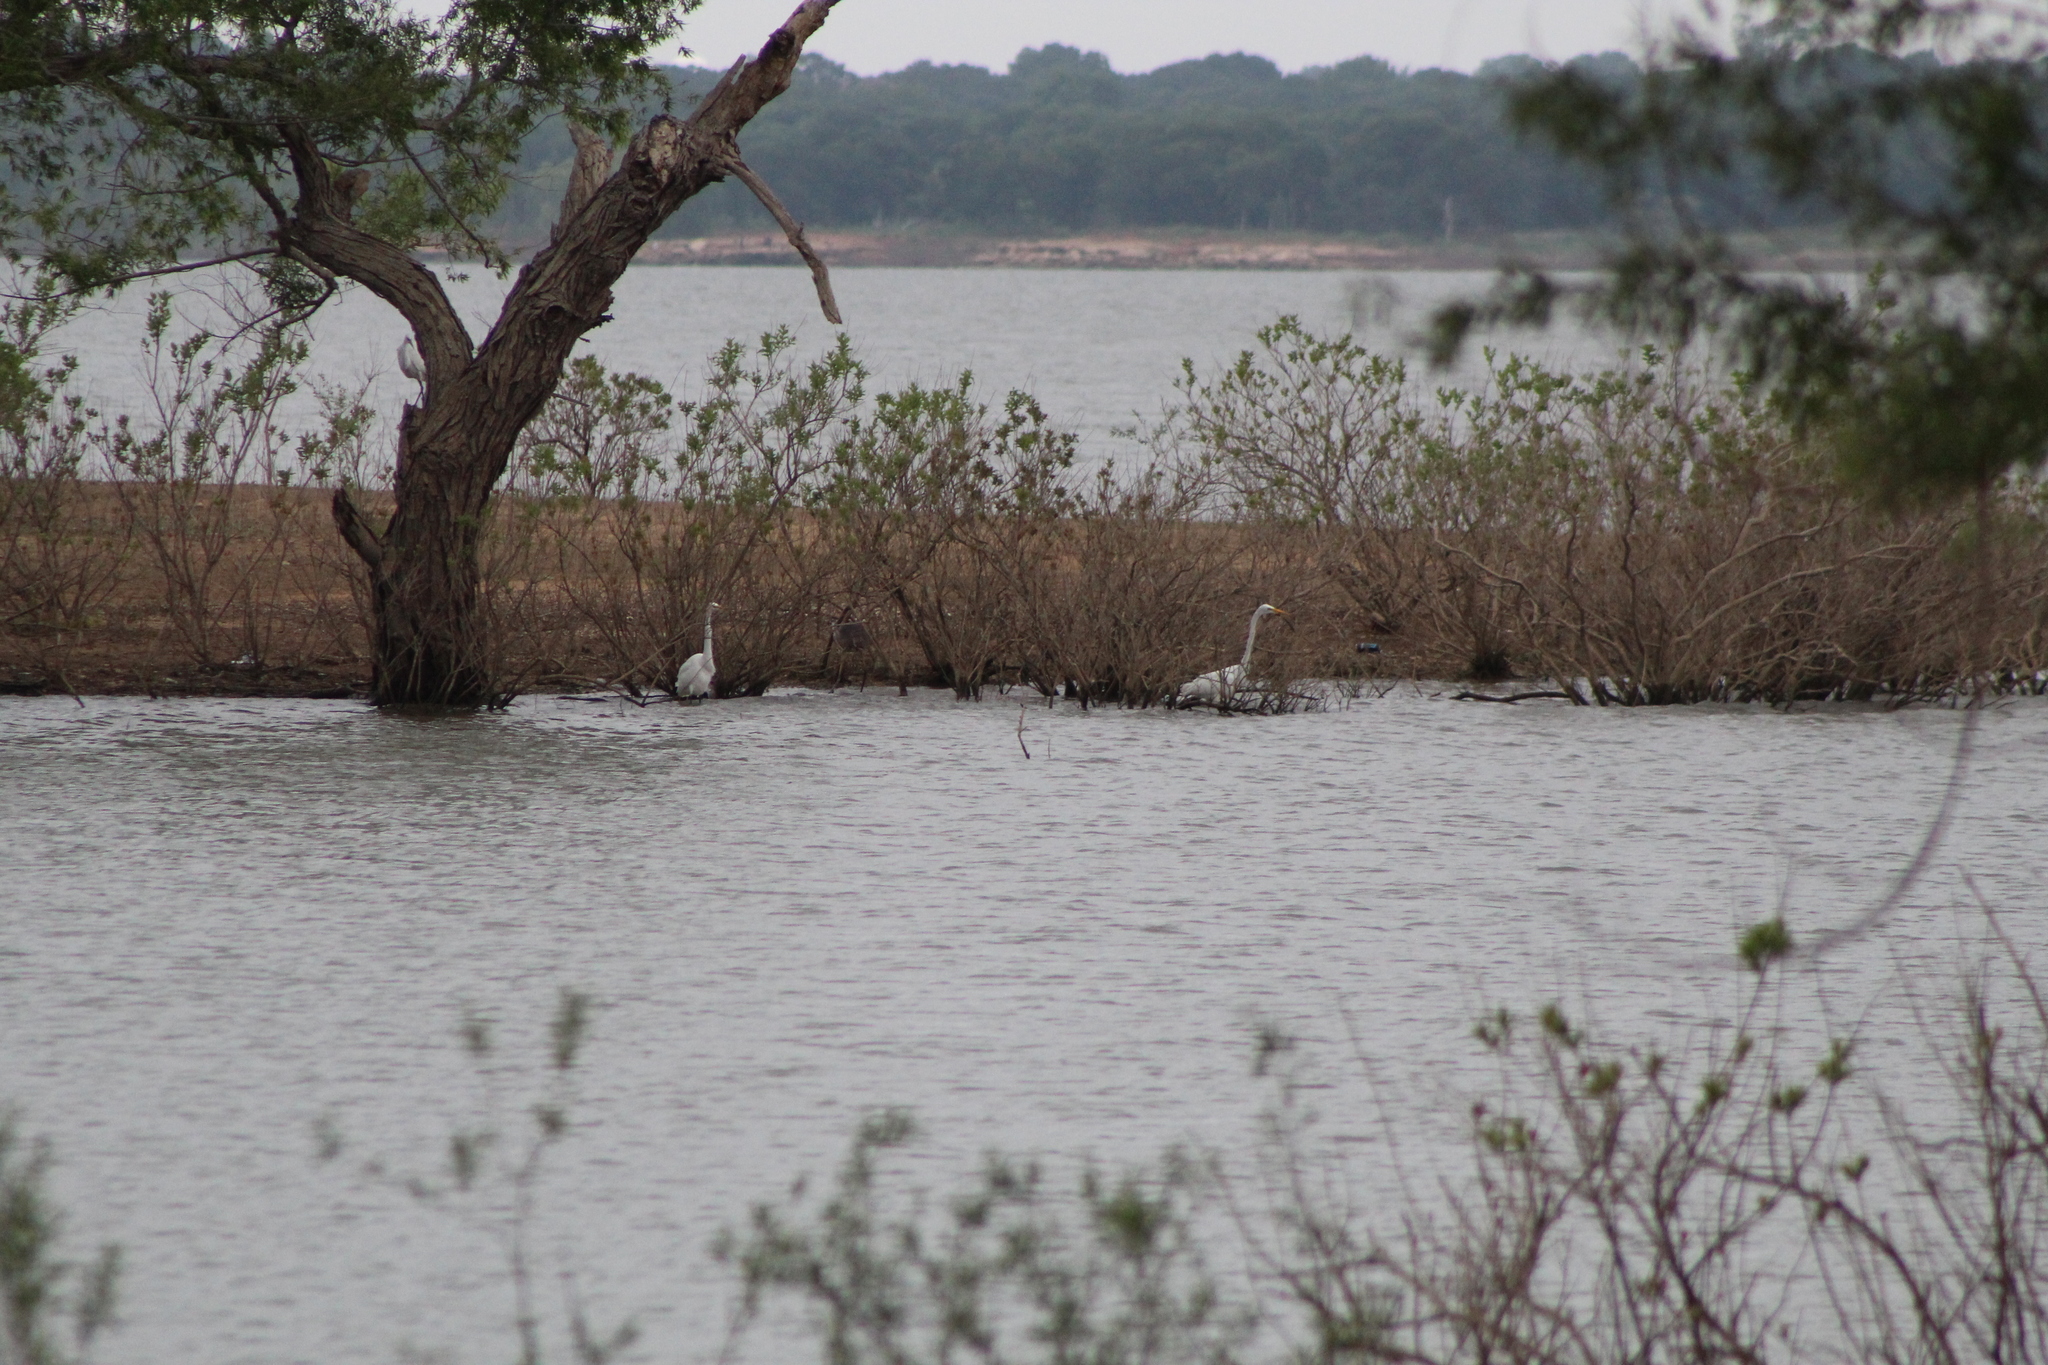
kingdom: Animalia
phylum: Chordata
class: Aves
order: Pelecaniformes
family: Ardeidae
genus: Ardea
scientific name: Ardea alba
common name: Great egret
